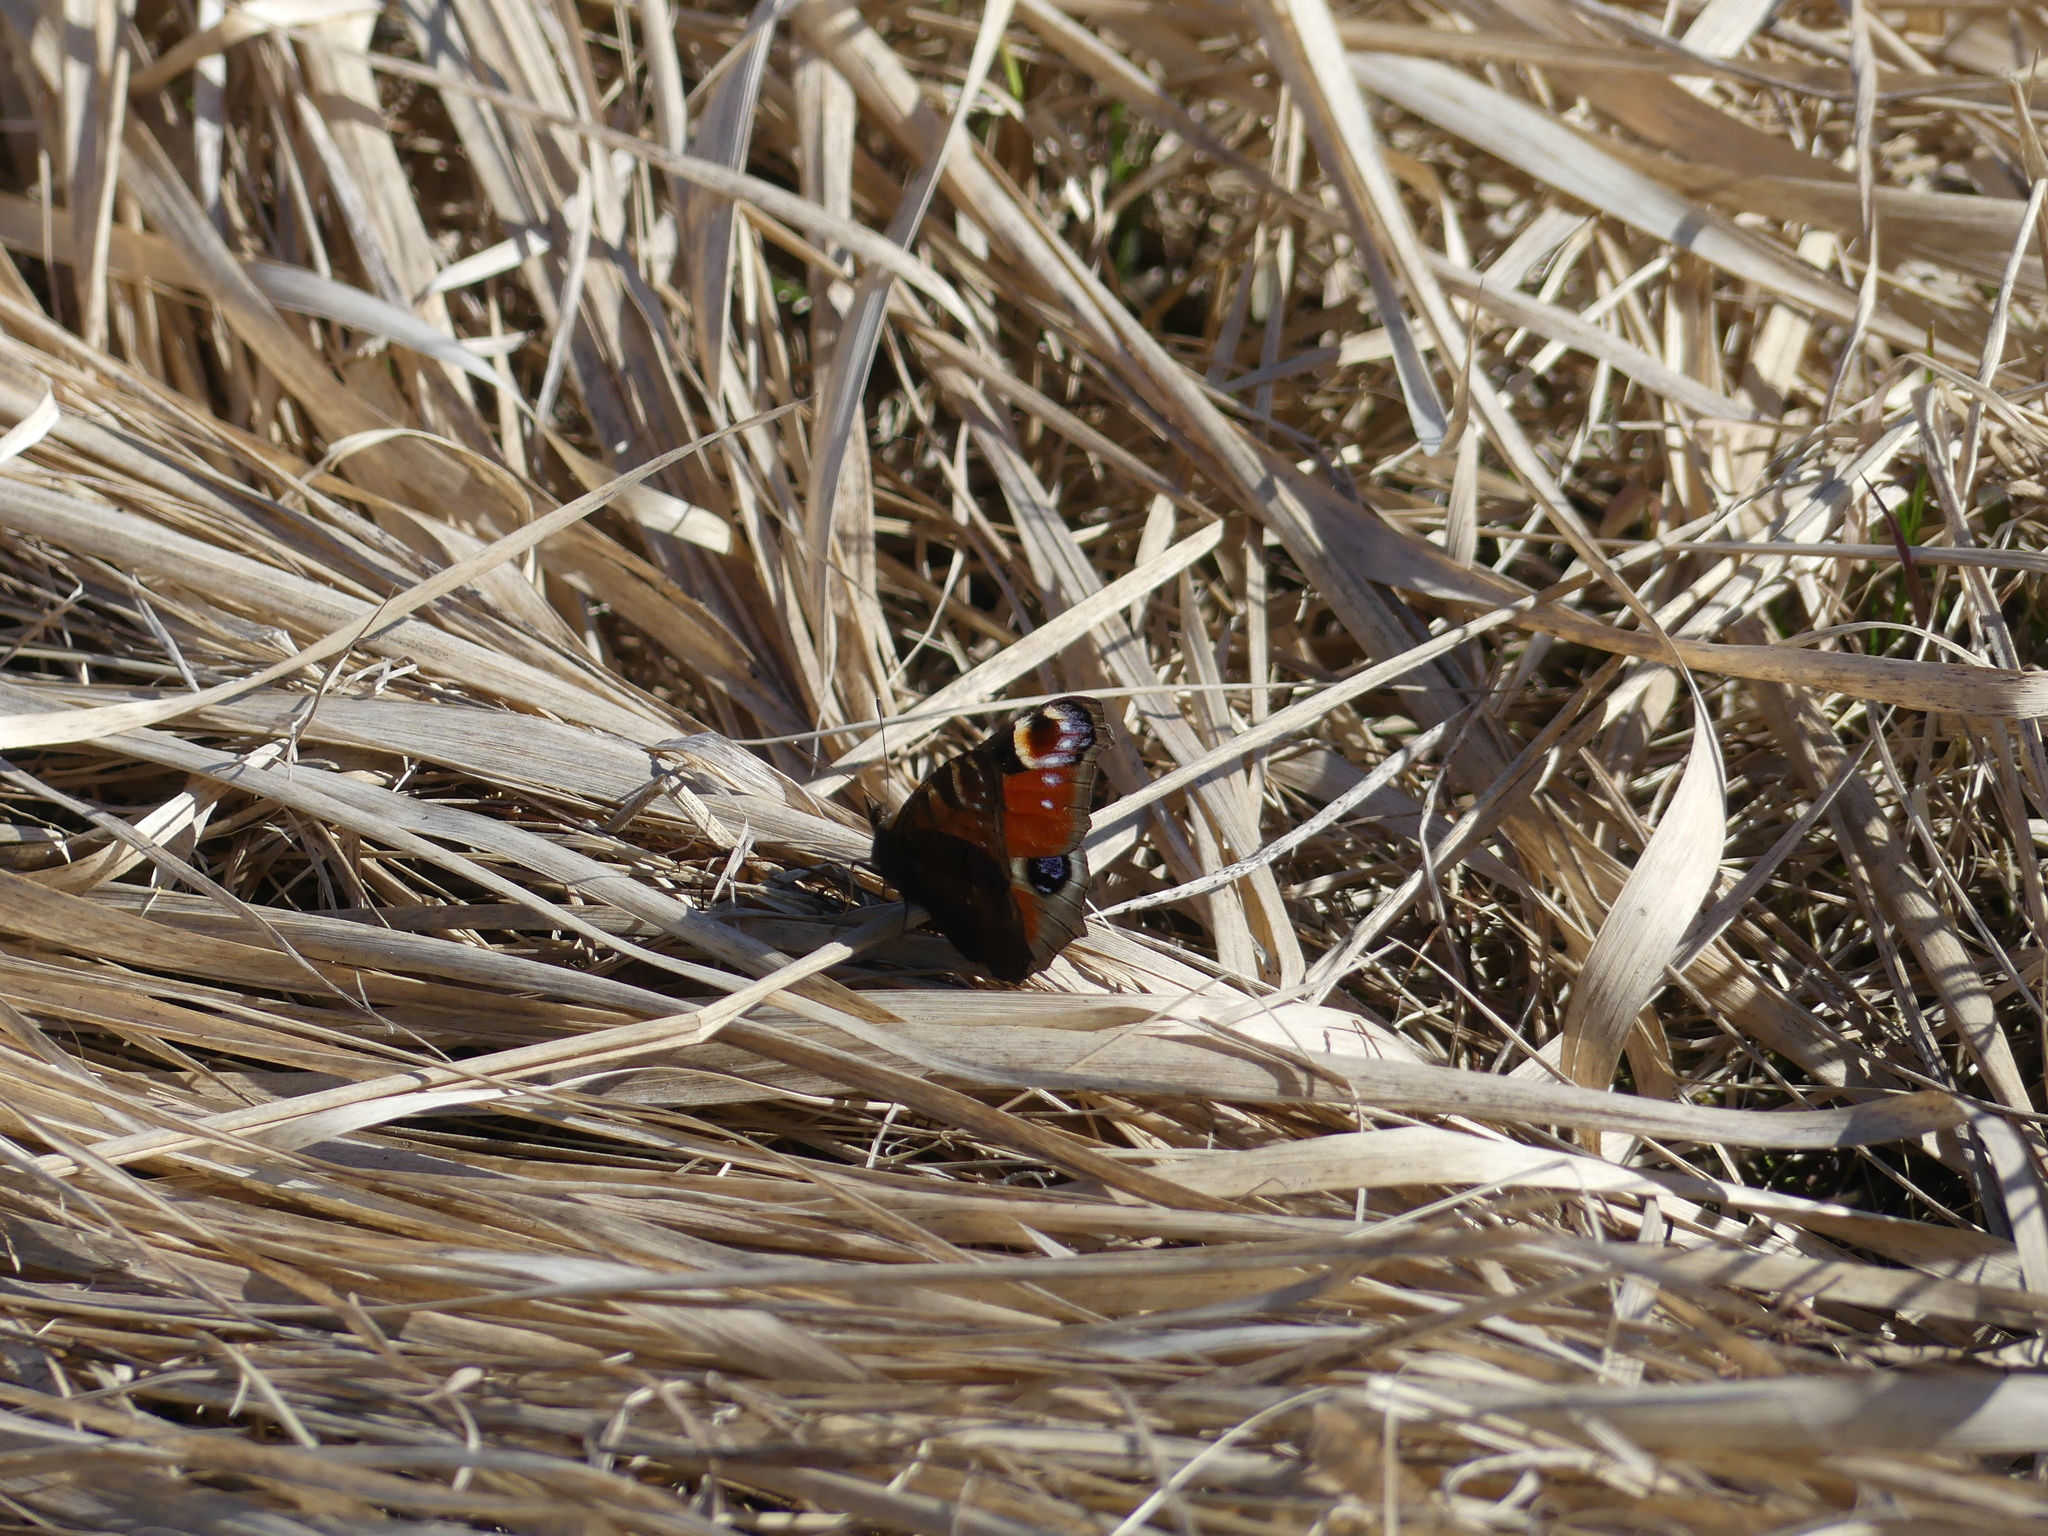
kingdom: Animalia
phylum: Arthropoda
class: Insecta
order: Lepidoptera
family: Nymphalidae
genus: Aglais
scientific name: Aglais io
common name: Peacock
